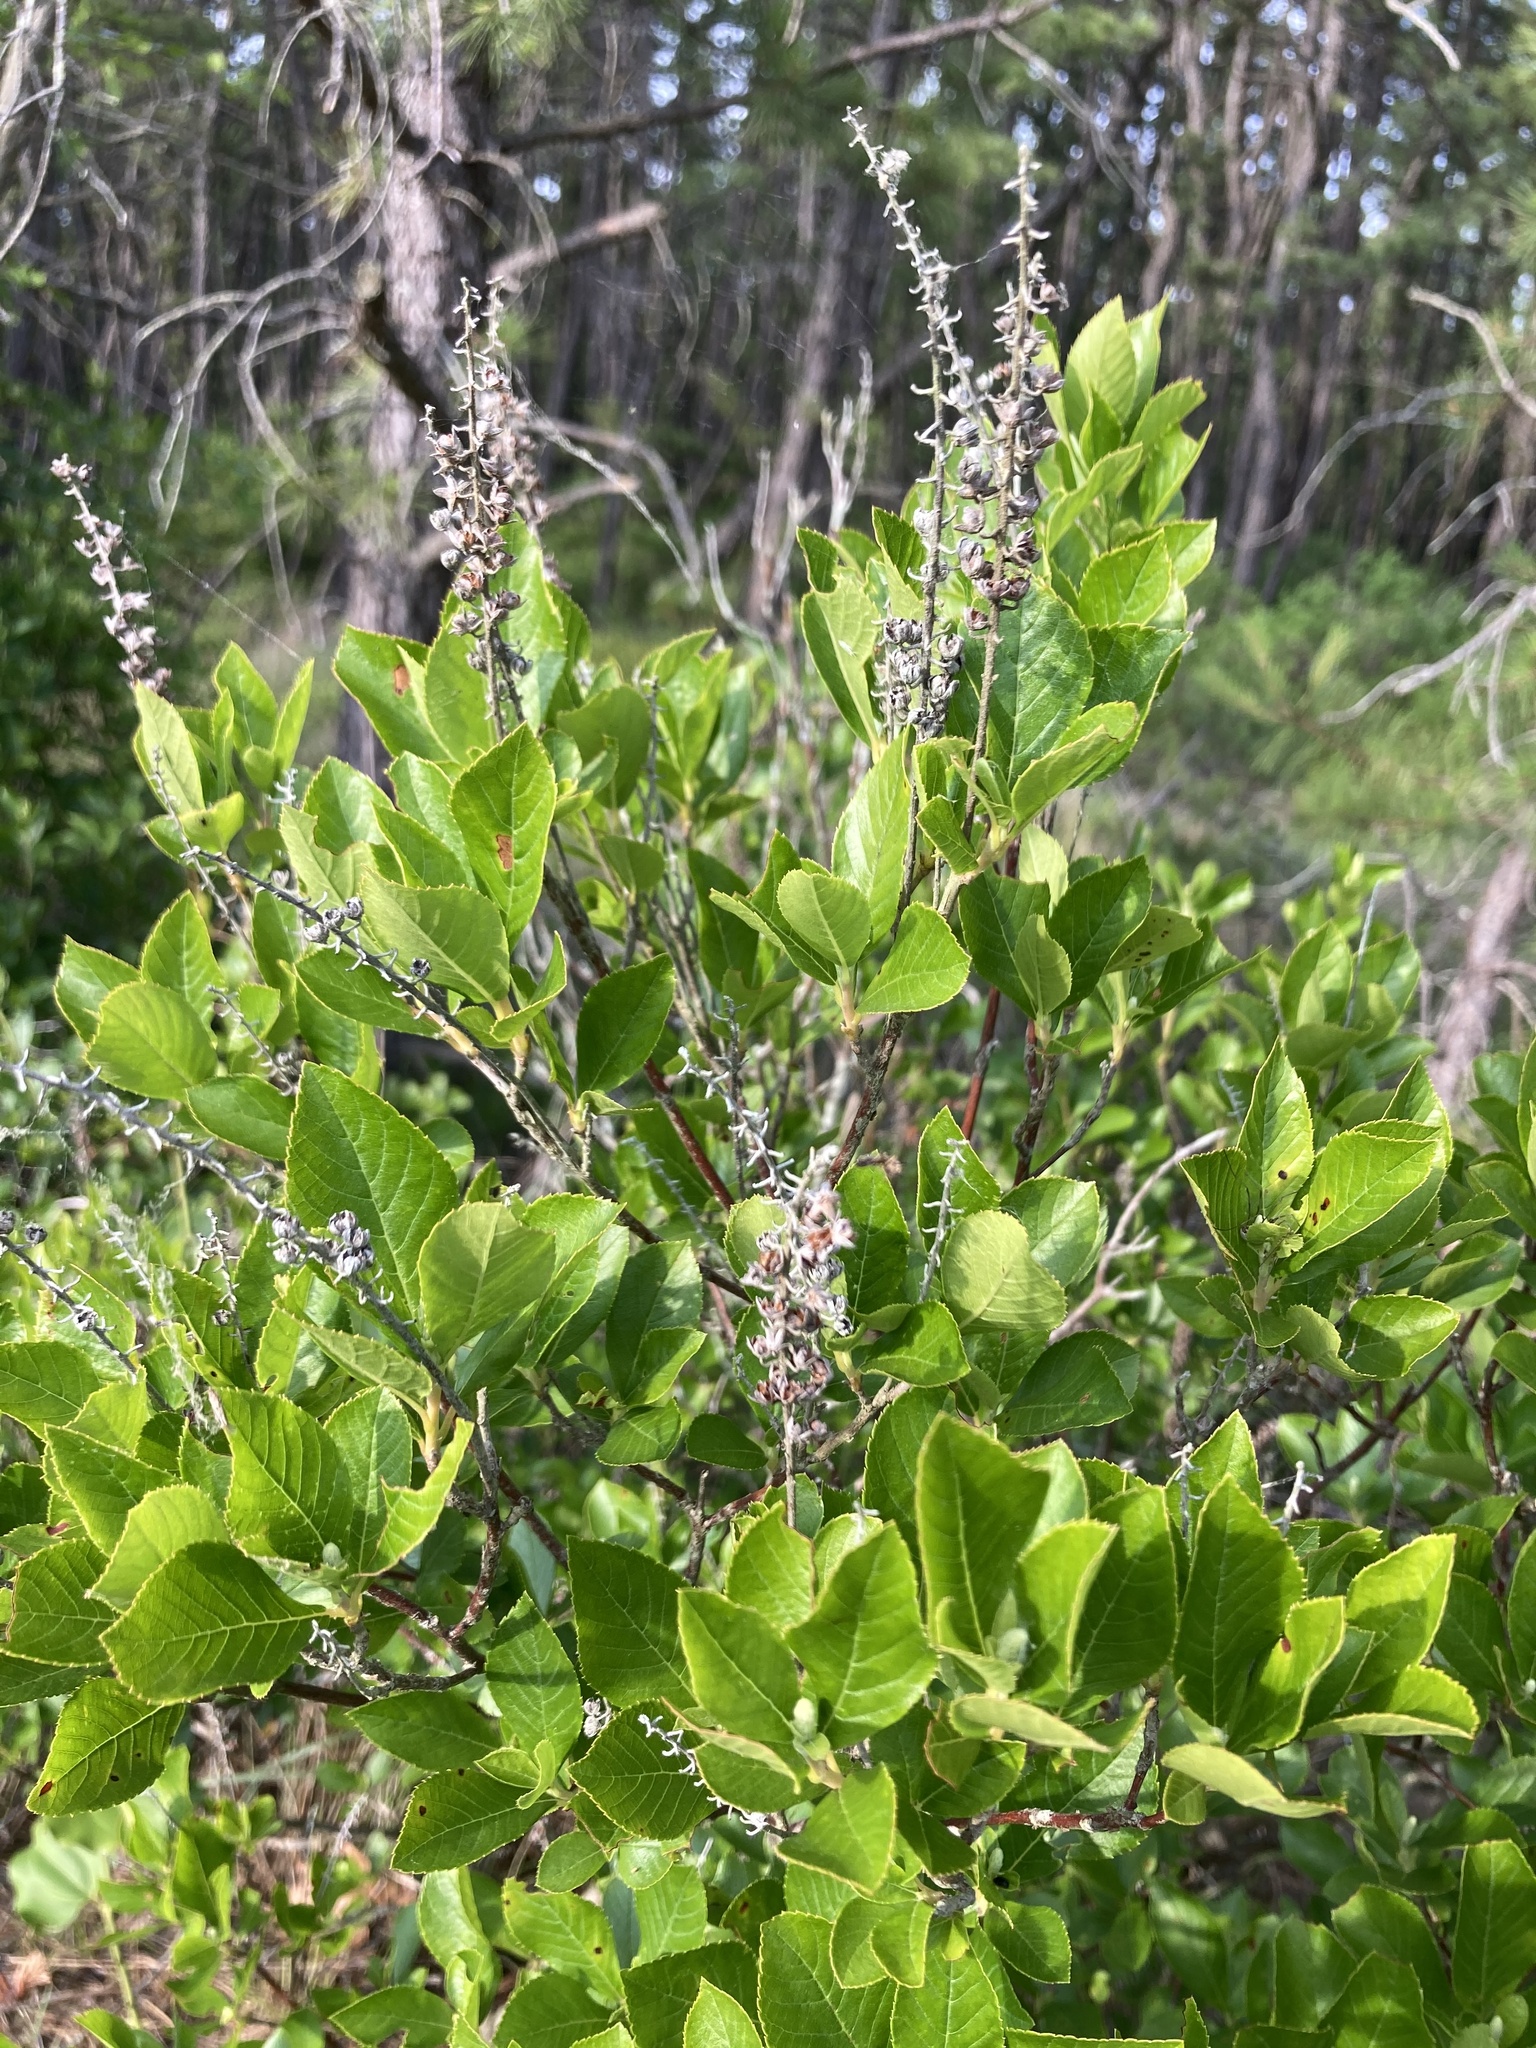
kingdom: Plantae
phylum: Tracheophyta
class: Magnoliopsida
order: Ericales
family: Clethraceae
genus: Clethra
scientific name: Clethra alnifolia
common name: Sweet pepperbush
